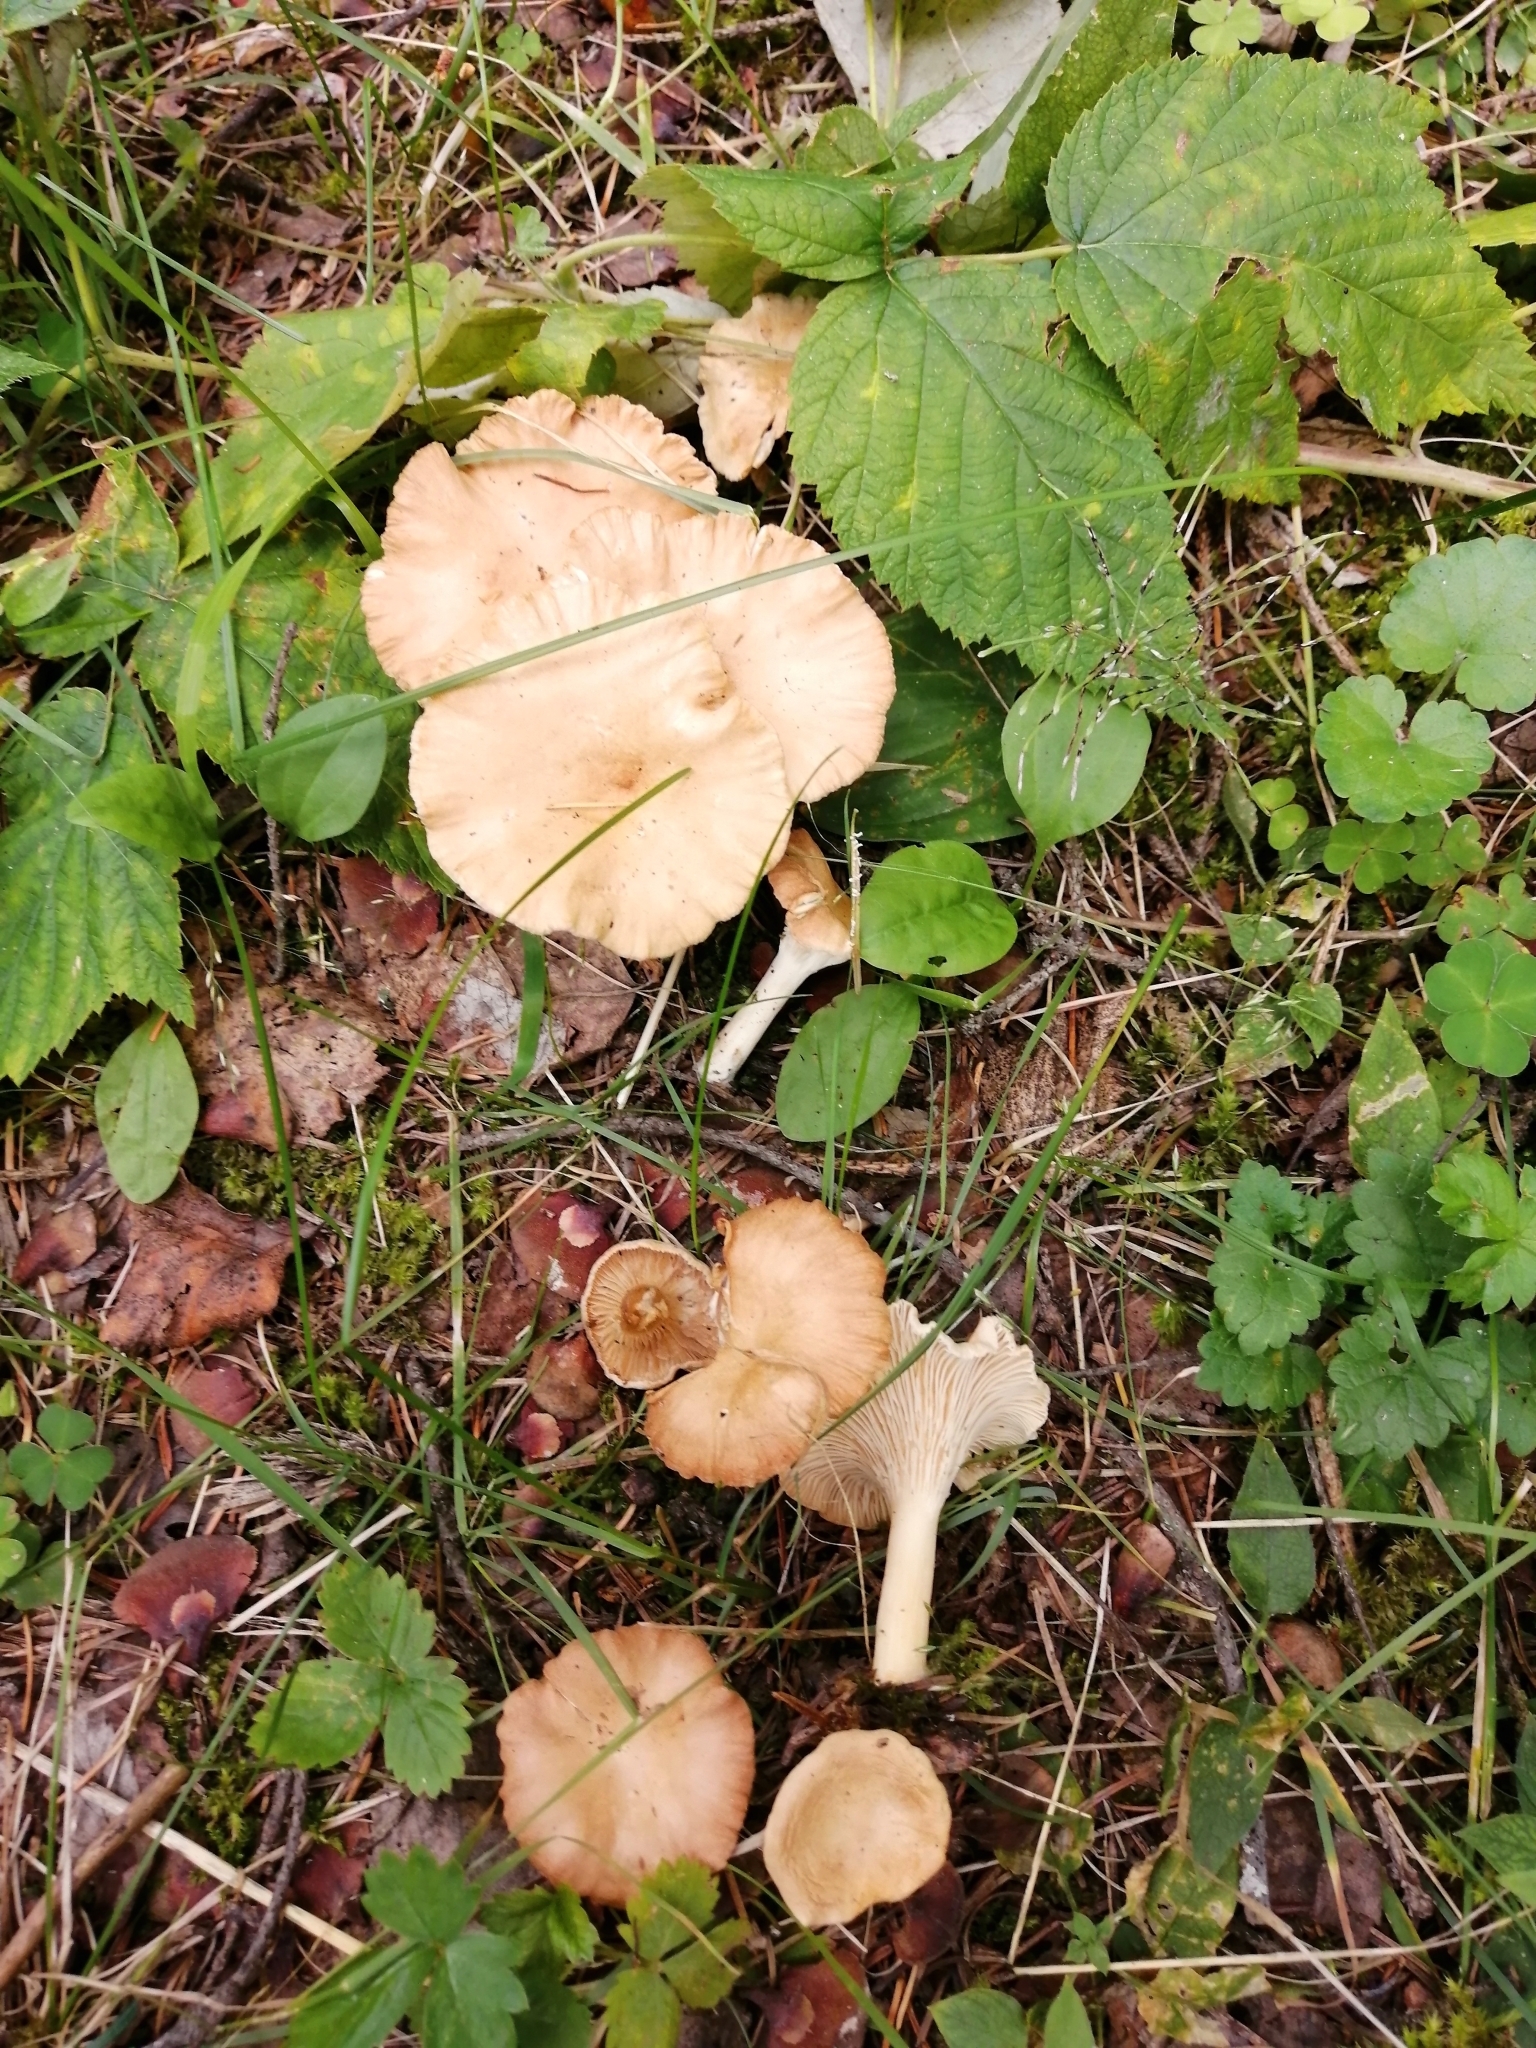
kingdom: Fungi
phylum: Basidiomycota
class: Agaricomycetes
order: Agaricales
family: Tricholomataceae
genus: Infundibulicybe
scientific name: Infundibulicybe gibba
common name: Common funnel
